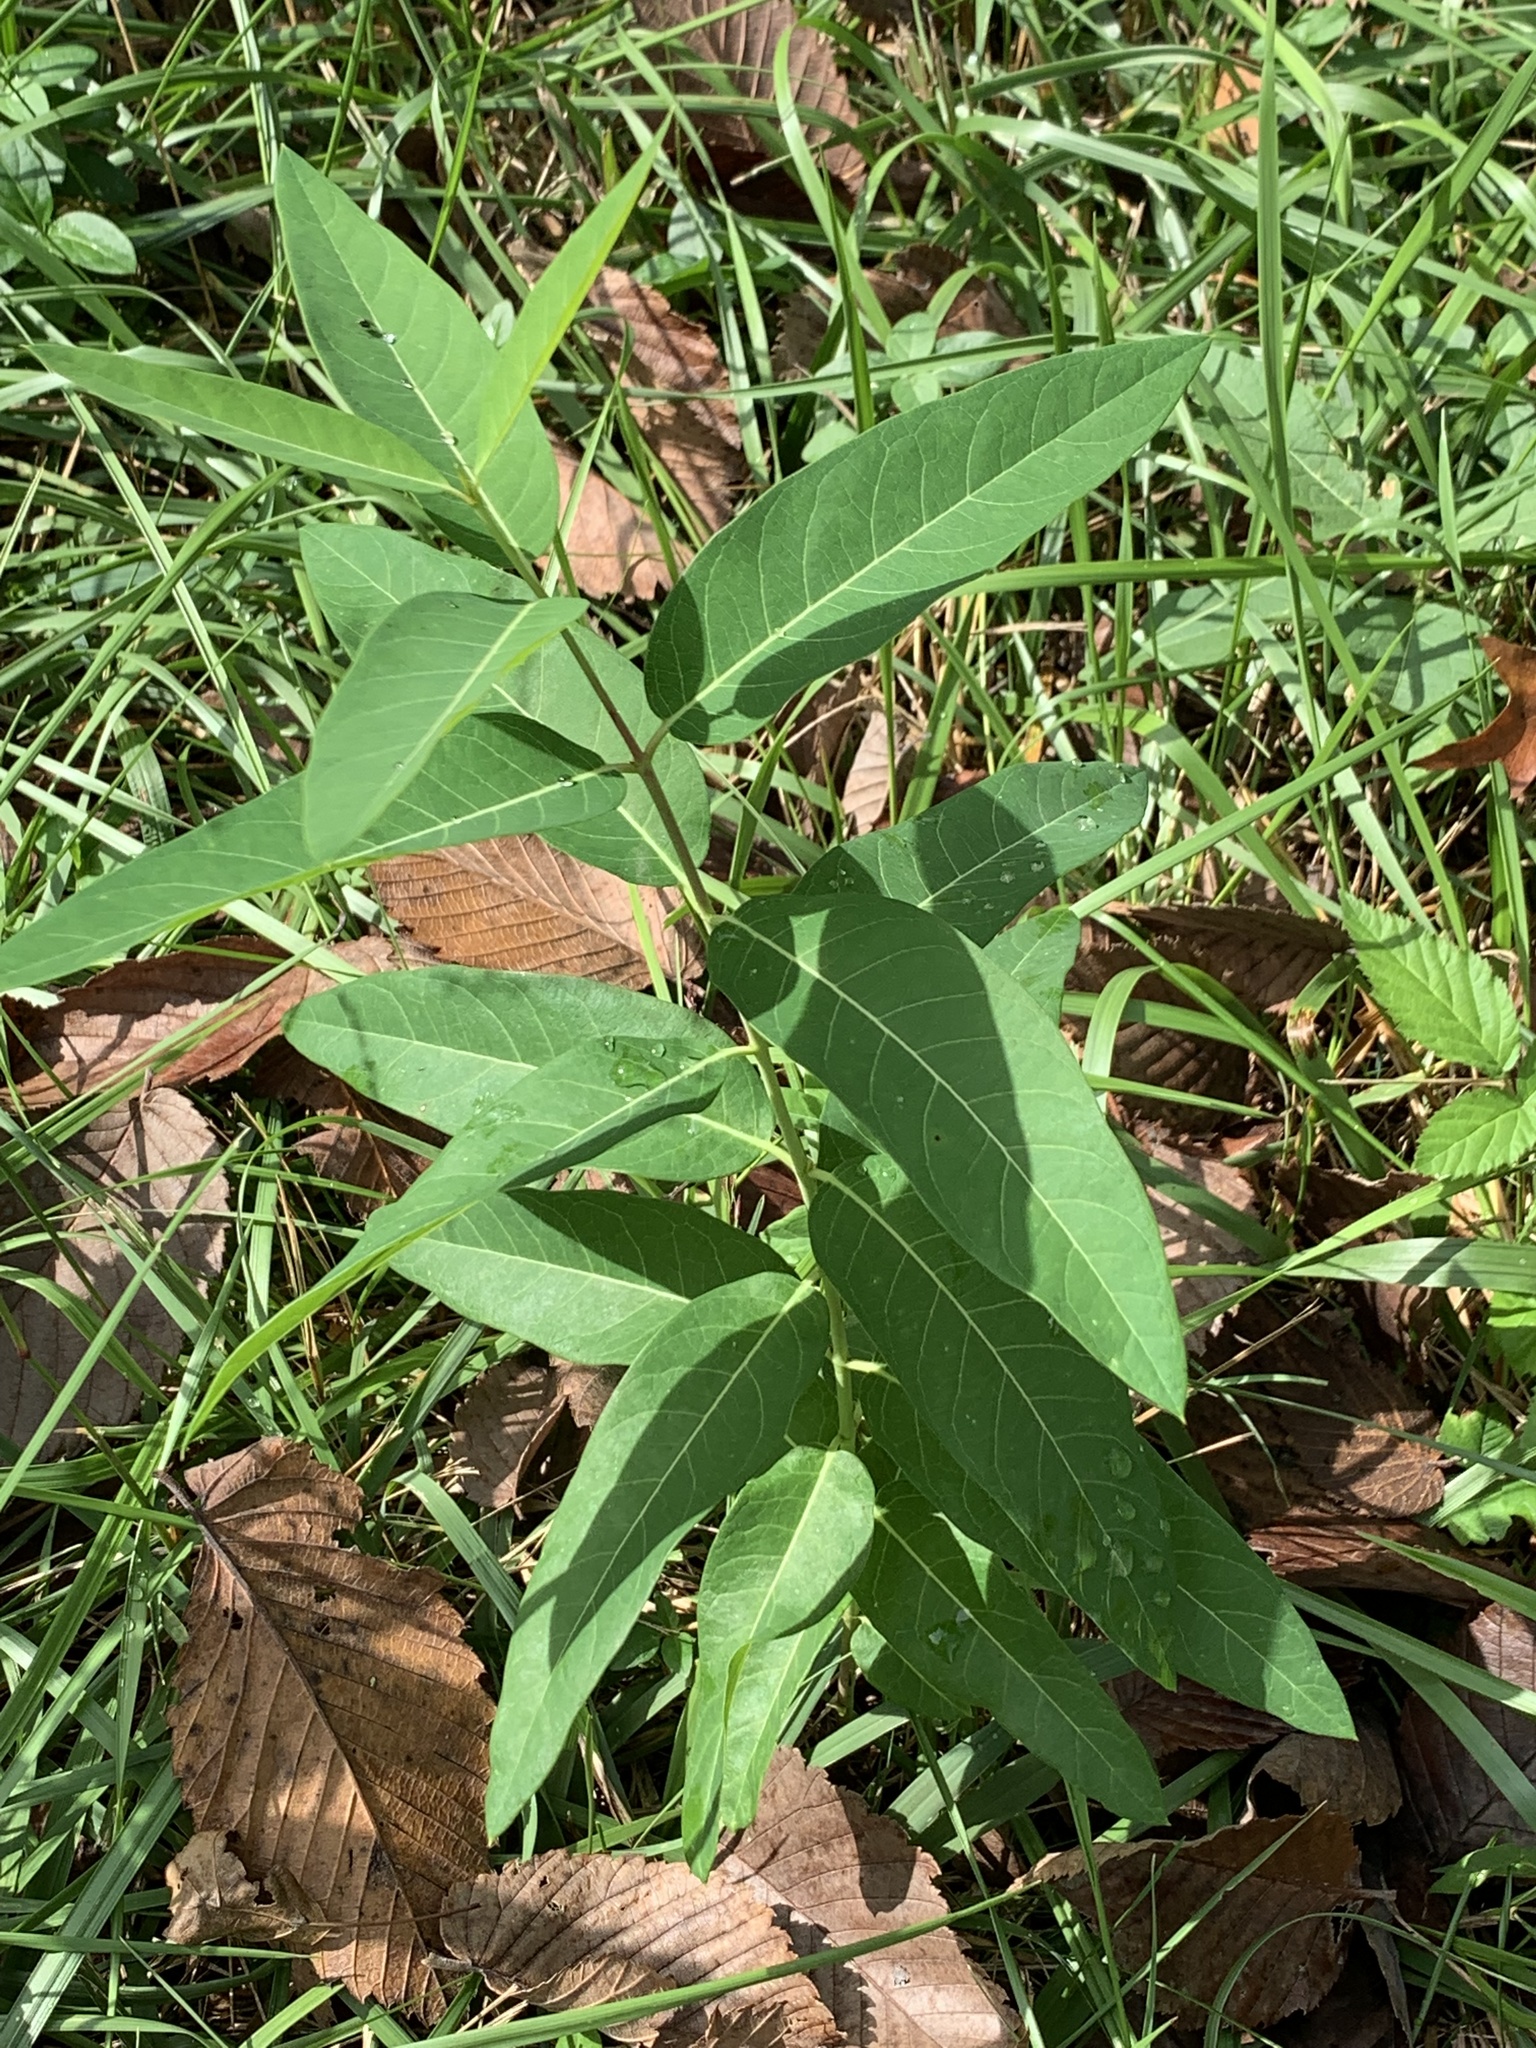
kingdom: Plantae
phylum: Tracheophyta
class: Magnoliopsida
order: Gentianales
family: Apocynaceae
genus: Apocynum
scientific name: Apocynum cannabinum
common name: Hemp dogbane
